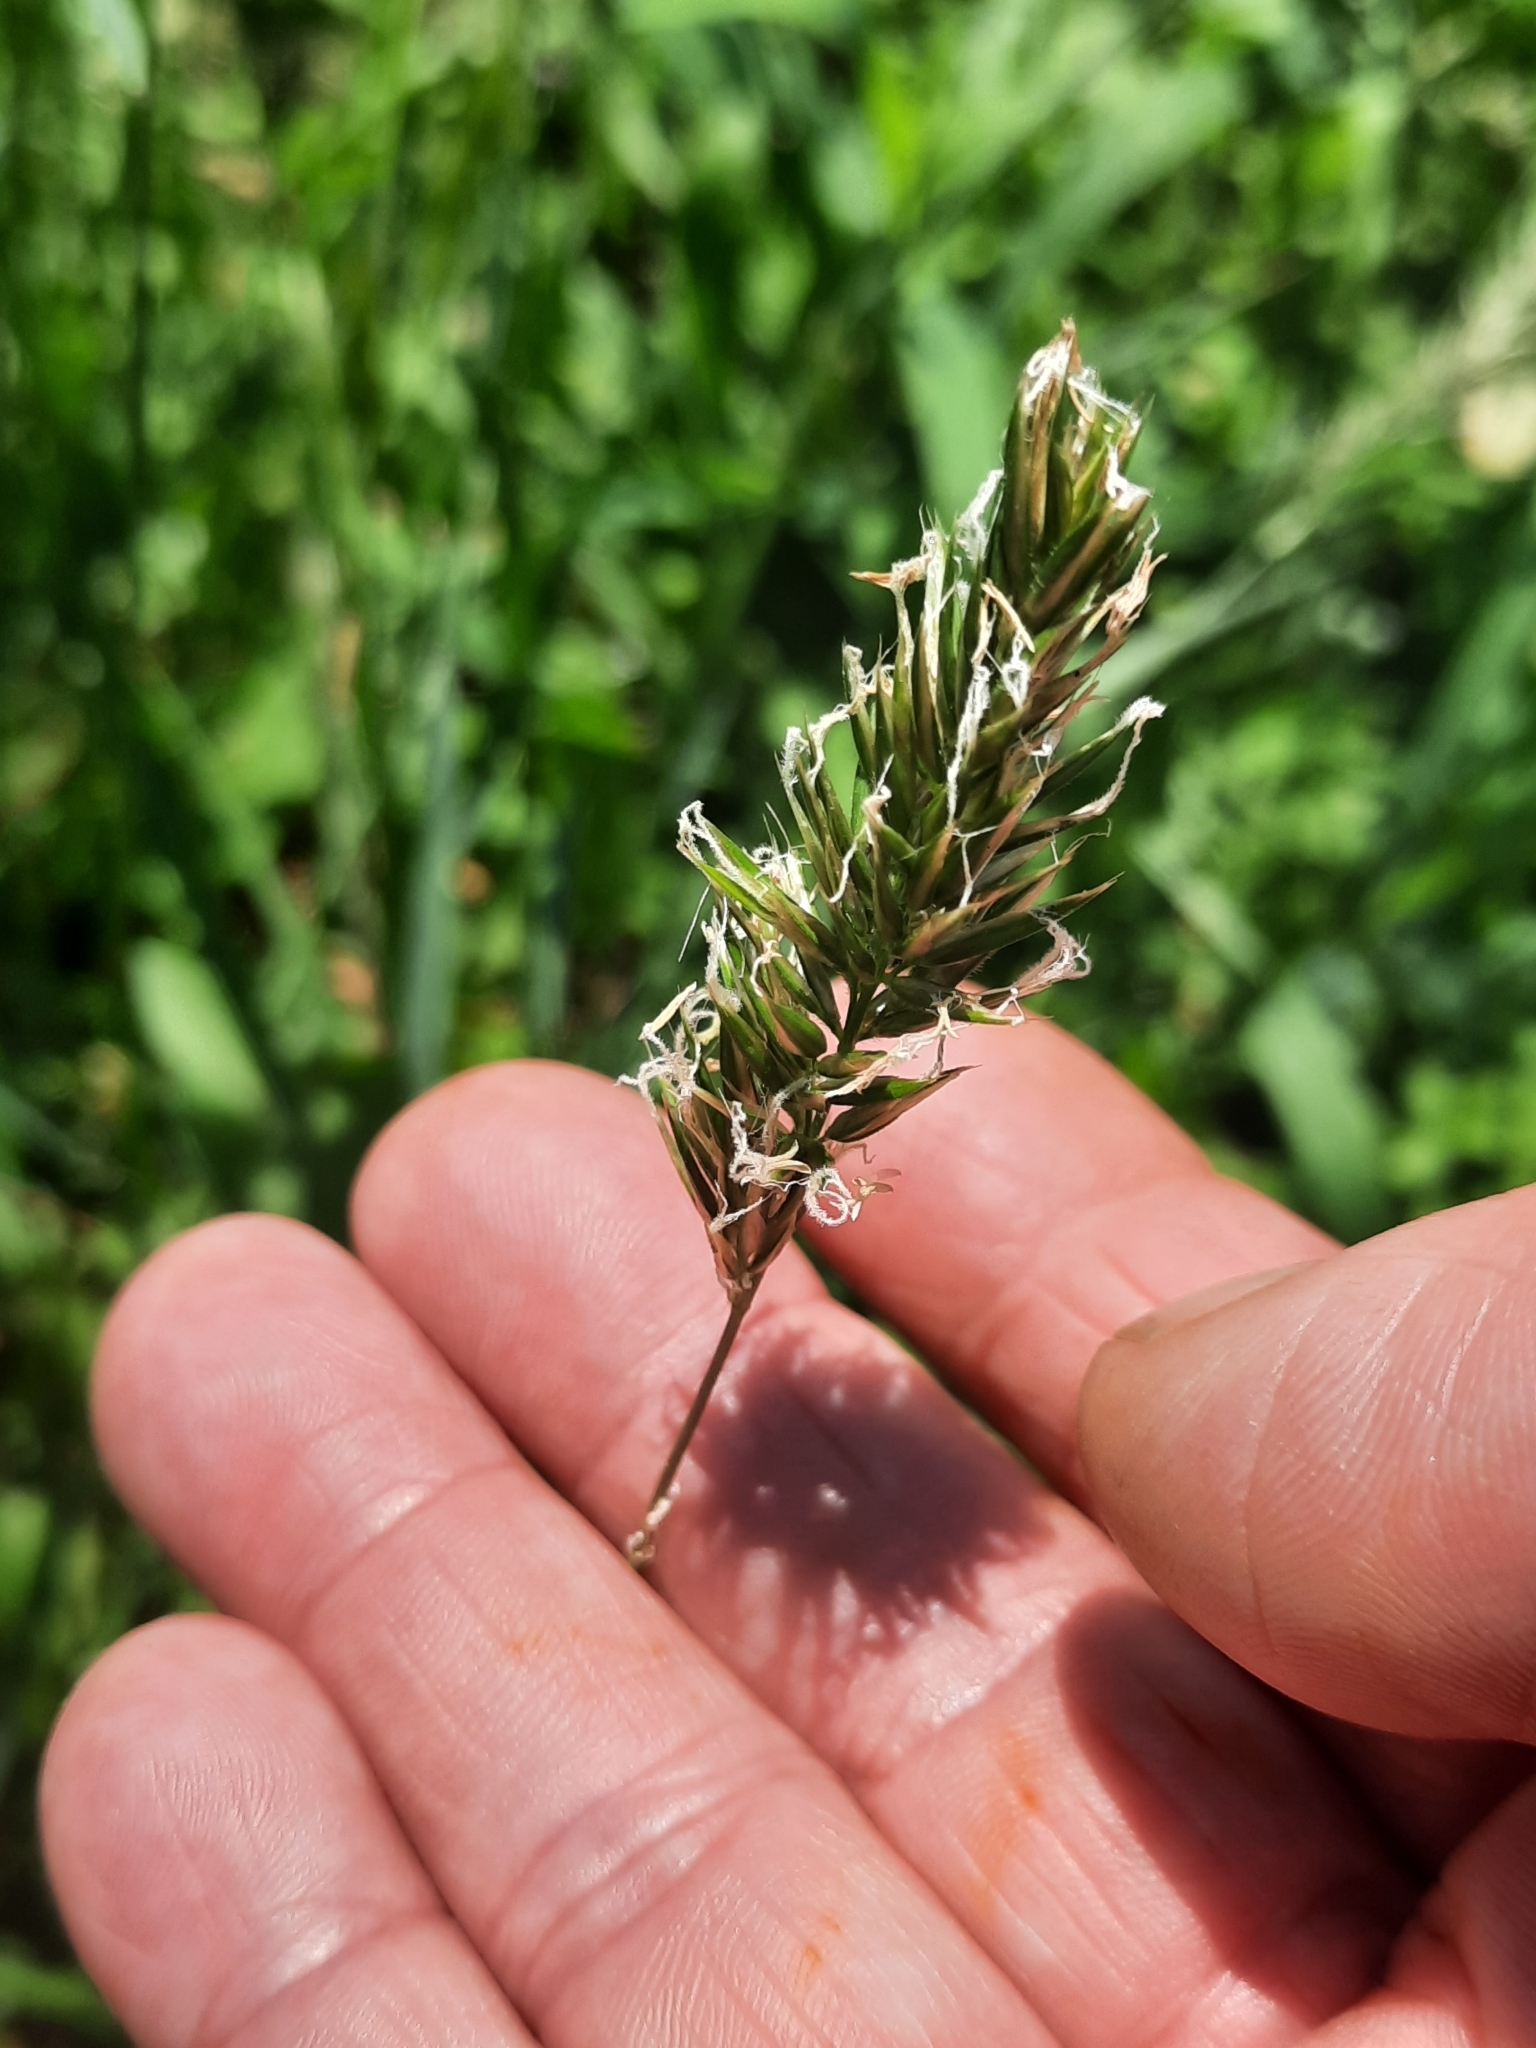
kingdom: Plantae
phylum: Tracheophyta
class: Liliopsida
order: Poales
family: Poaceae
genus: Anthoxanthum
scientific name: Anthoxanthum odoratum
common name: Sweet vernalgrass
